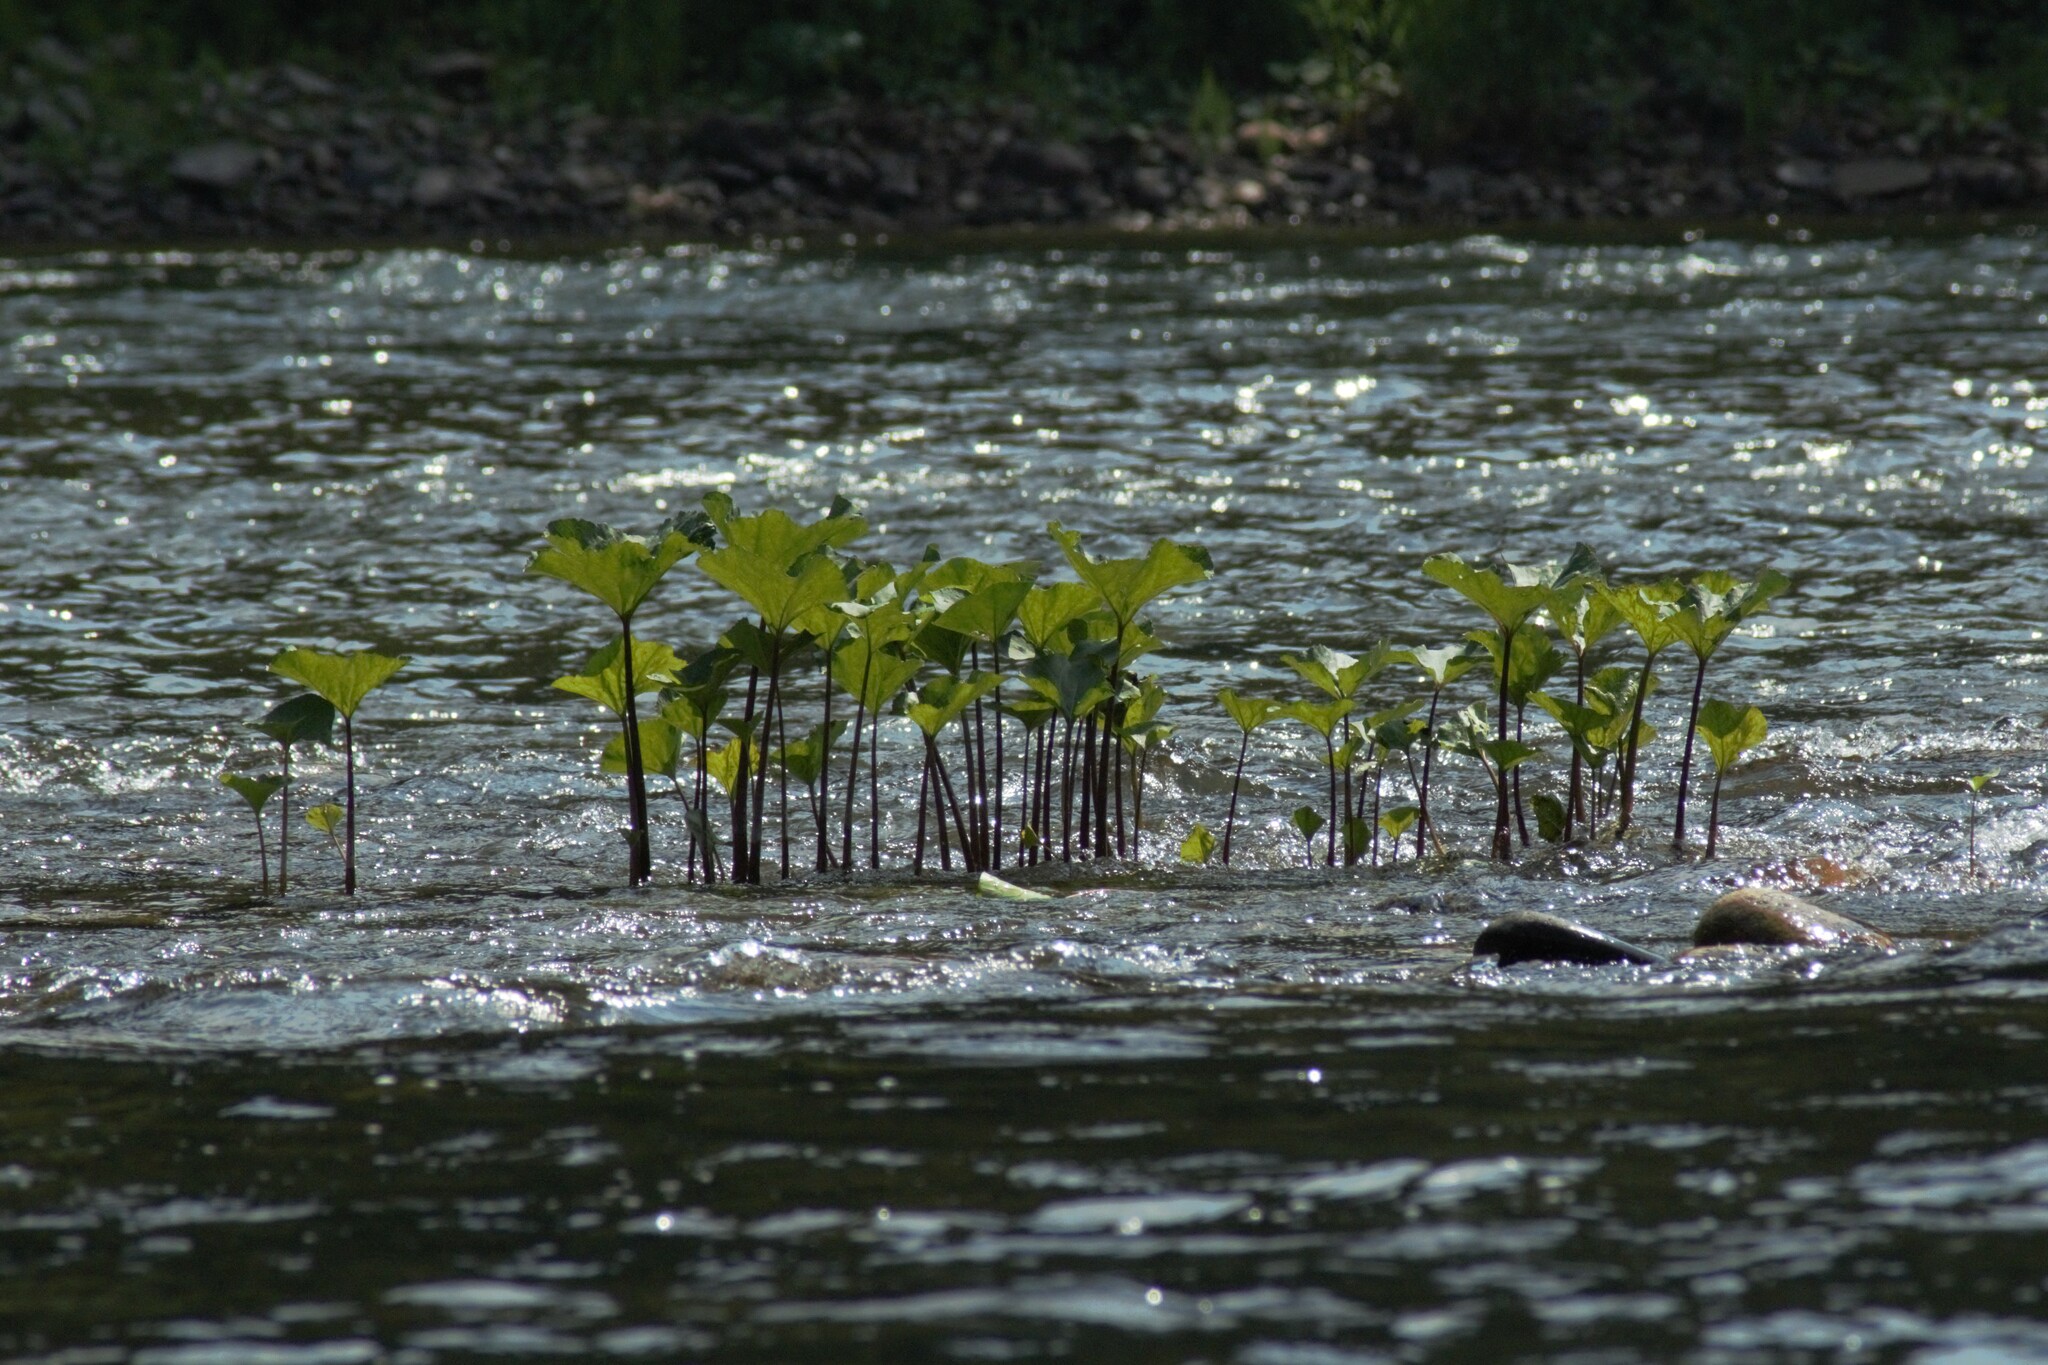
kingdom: Plantae
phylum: Tracheophyta
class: Magnoliopsida
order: Asterales
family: Asteraceae
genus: Petasites
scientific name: Petasites radiatus
